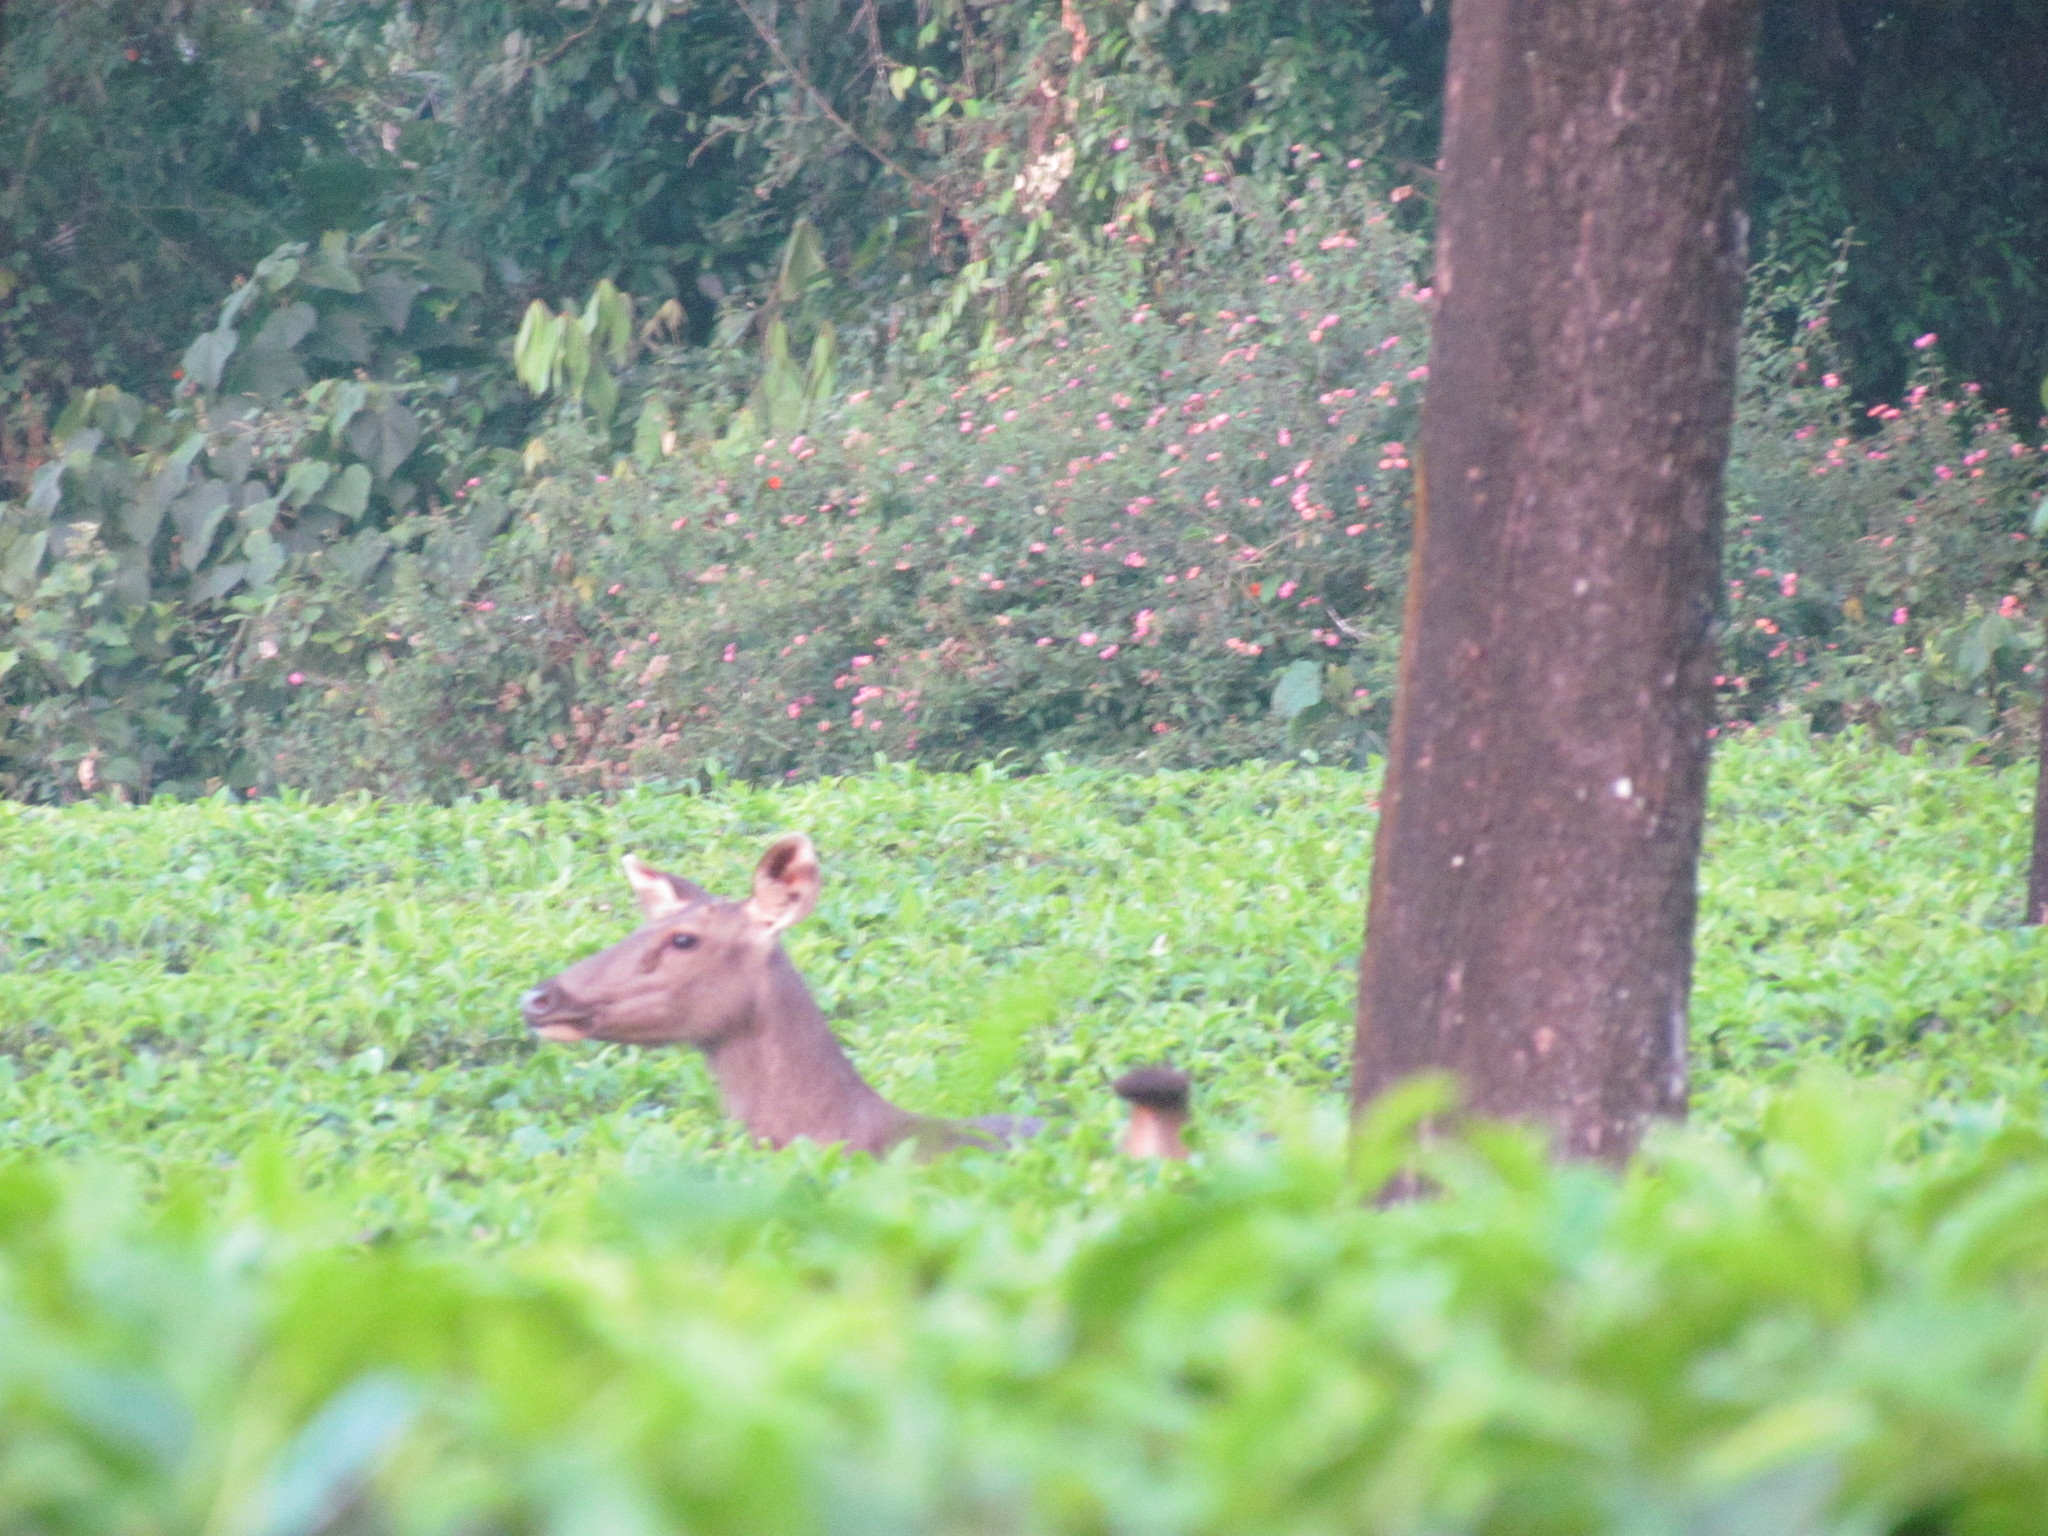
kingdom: Animalia
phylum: Chordata
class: Mammalia
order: Artiodactyla
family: Cervidae
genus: Rusa
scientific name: Rusa unicolor
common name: Sambar
